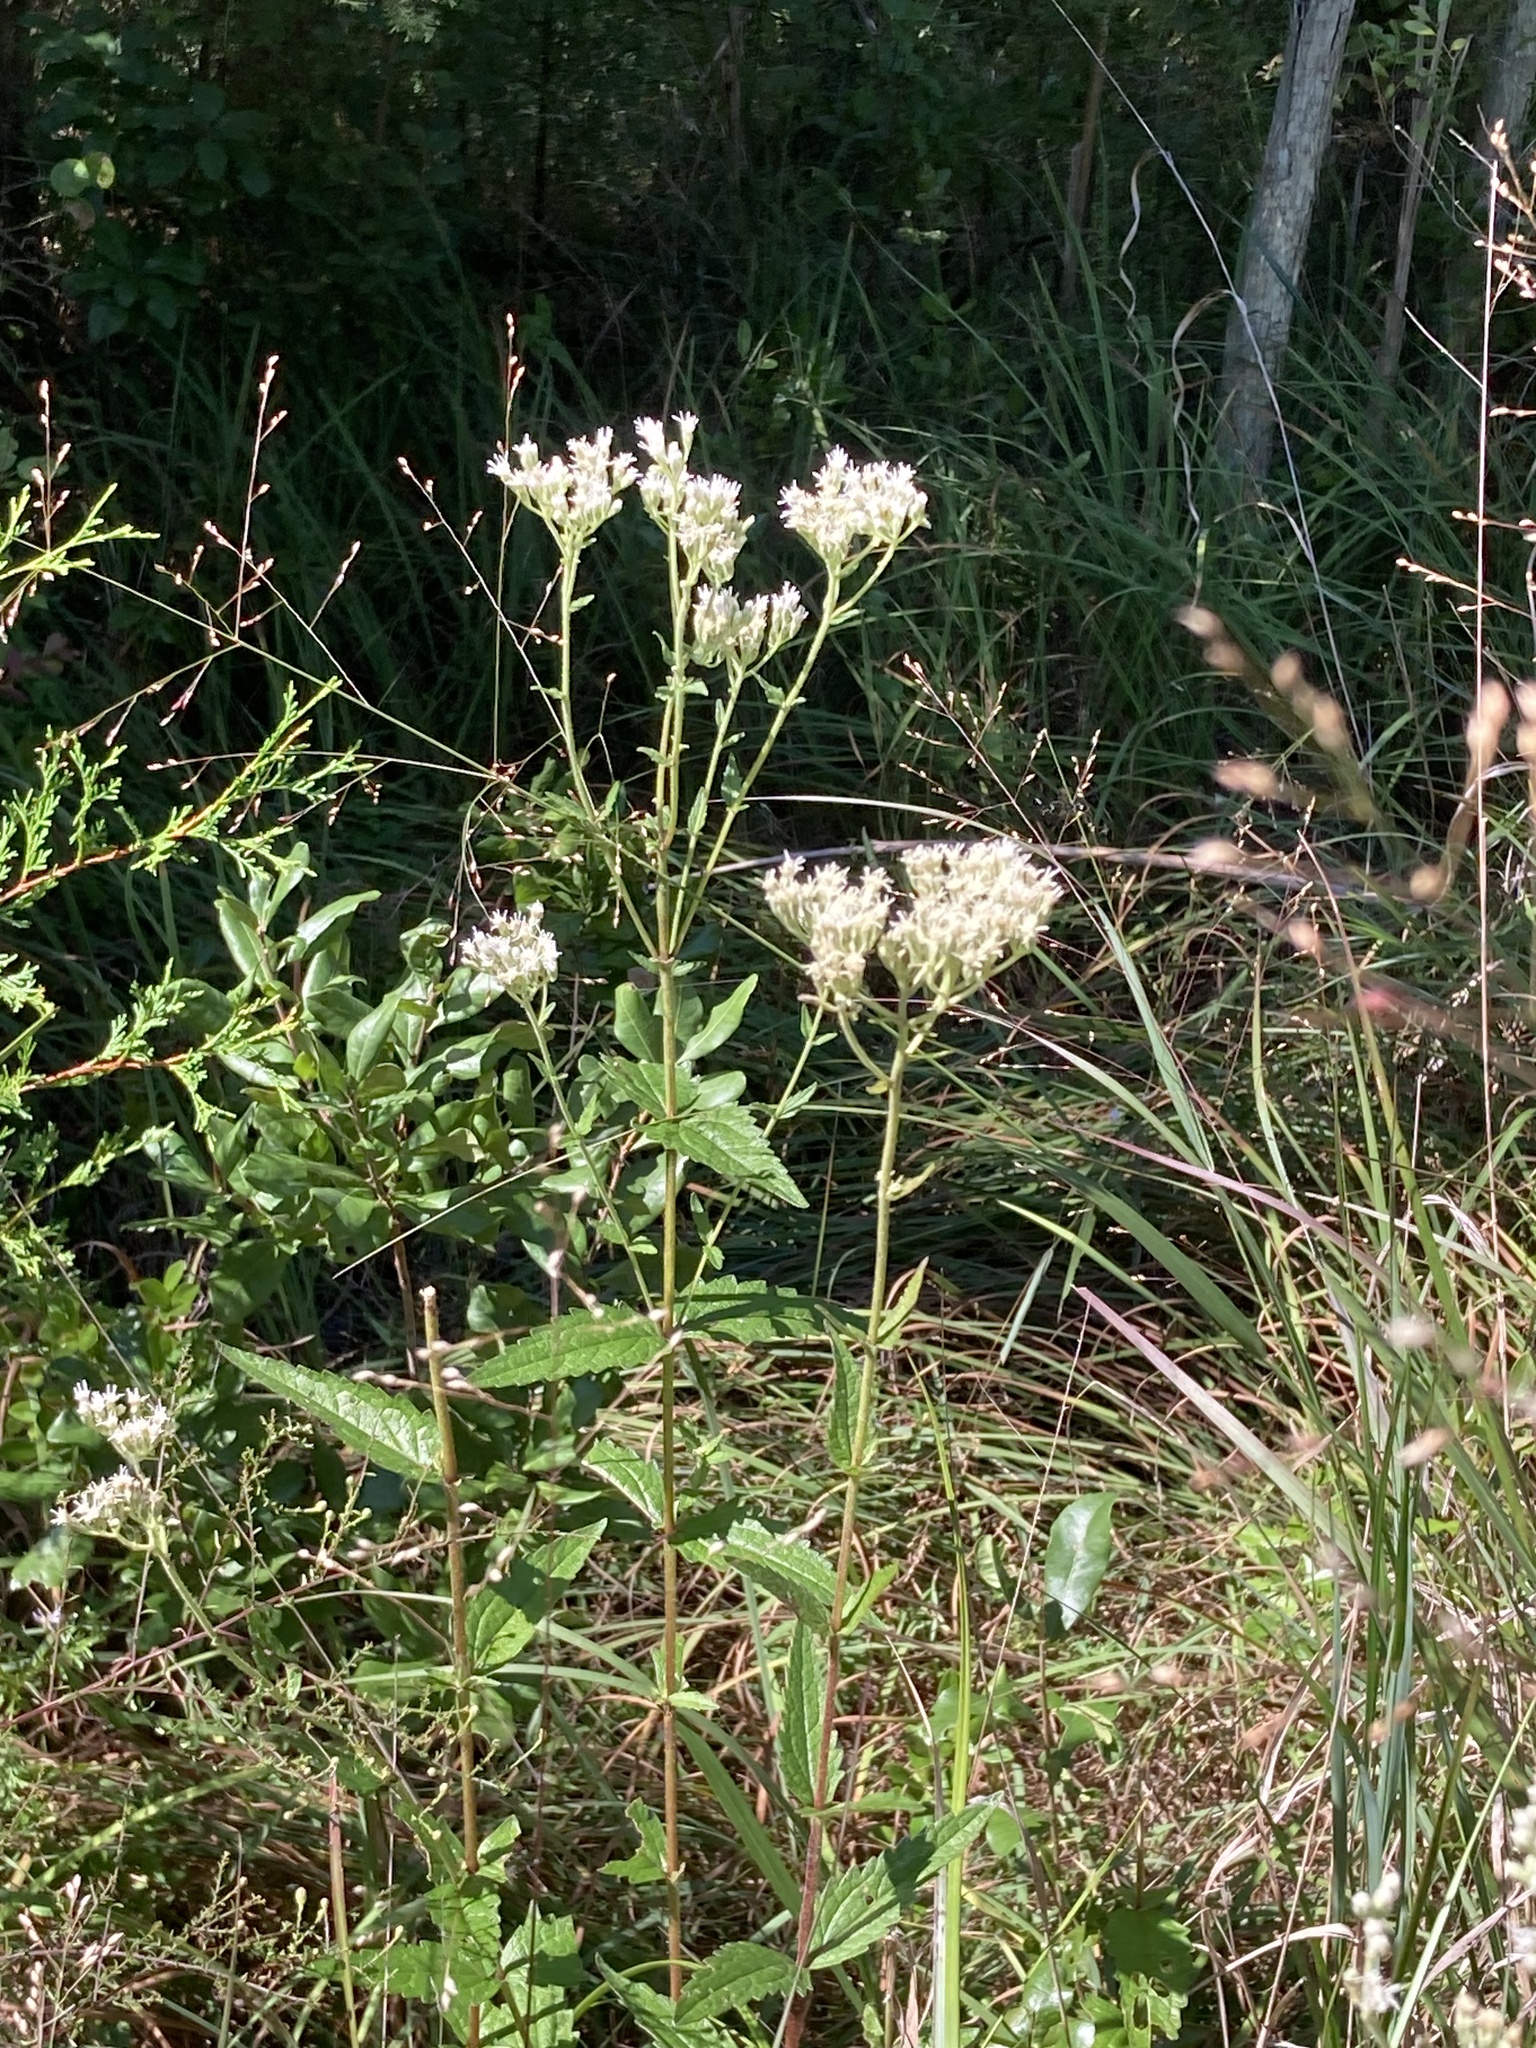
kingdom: Plantae
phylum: Tracheophyta
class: Magnoliopsida
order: Asterales
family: Asteraceae
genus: Eupatorium
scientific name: Eupatorium pilosum
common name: Rough boneset
